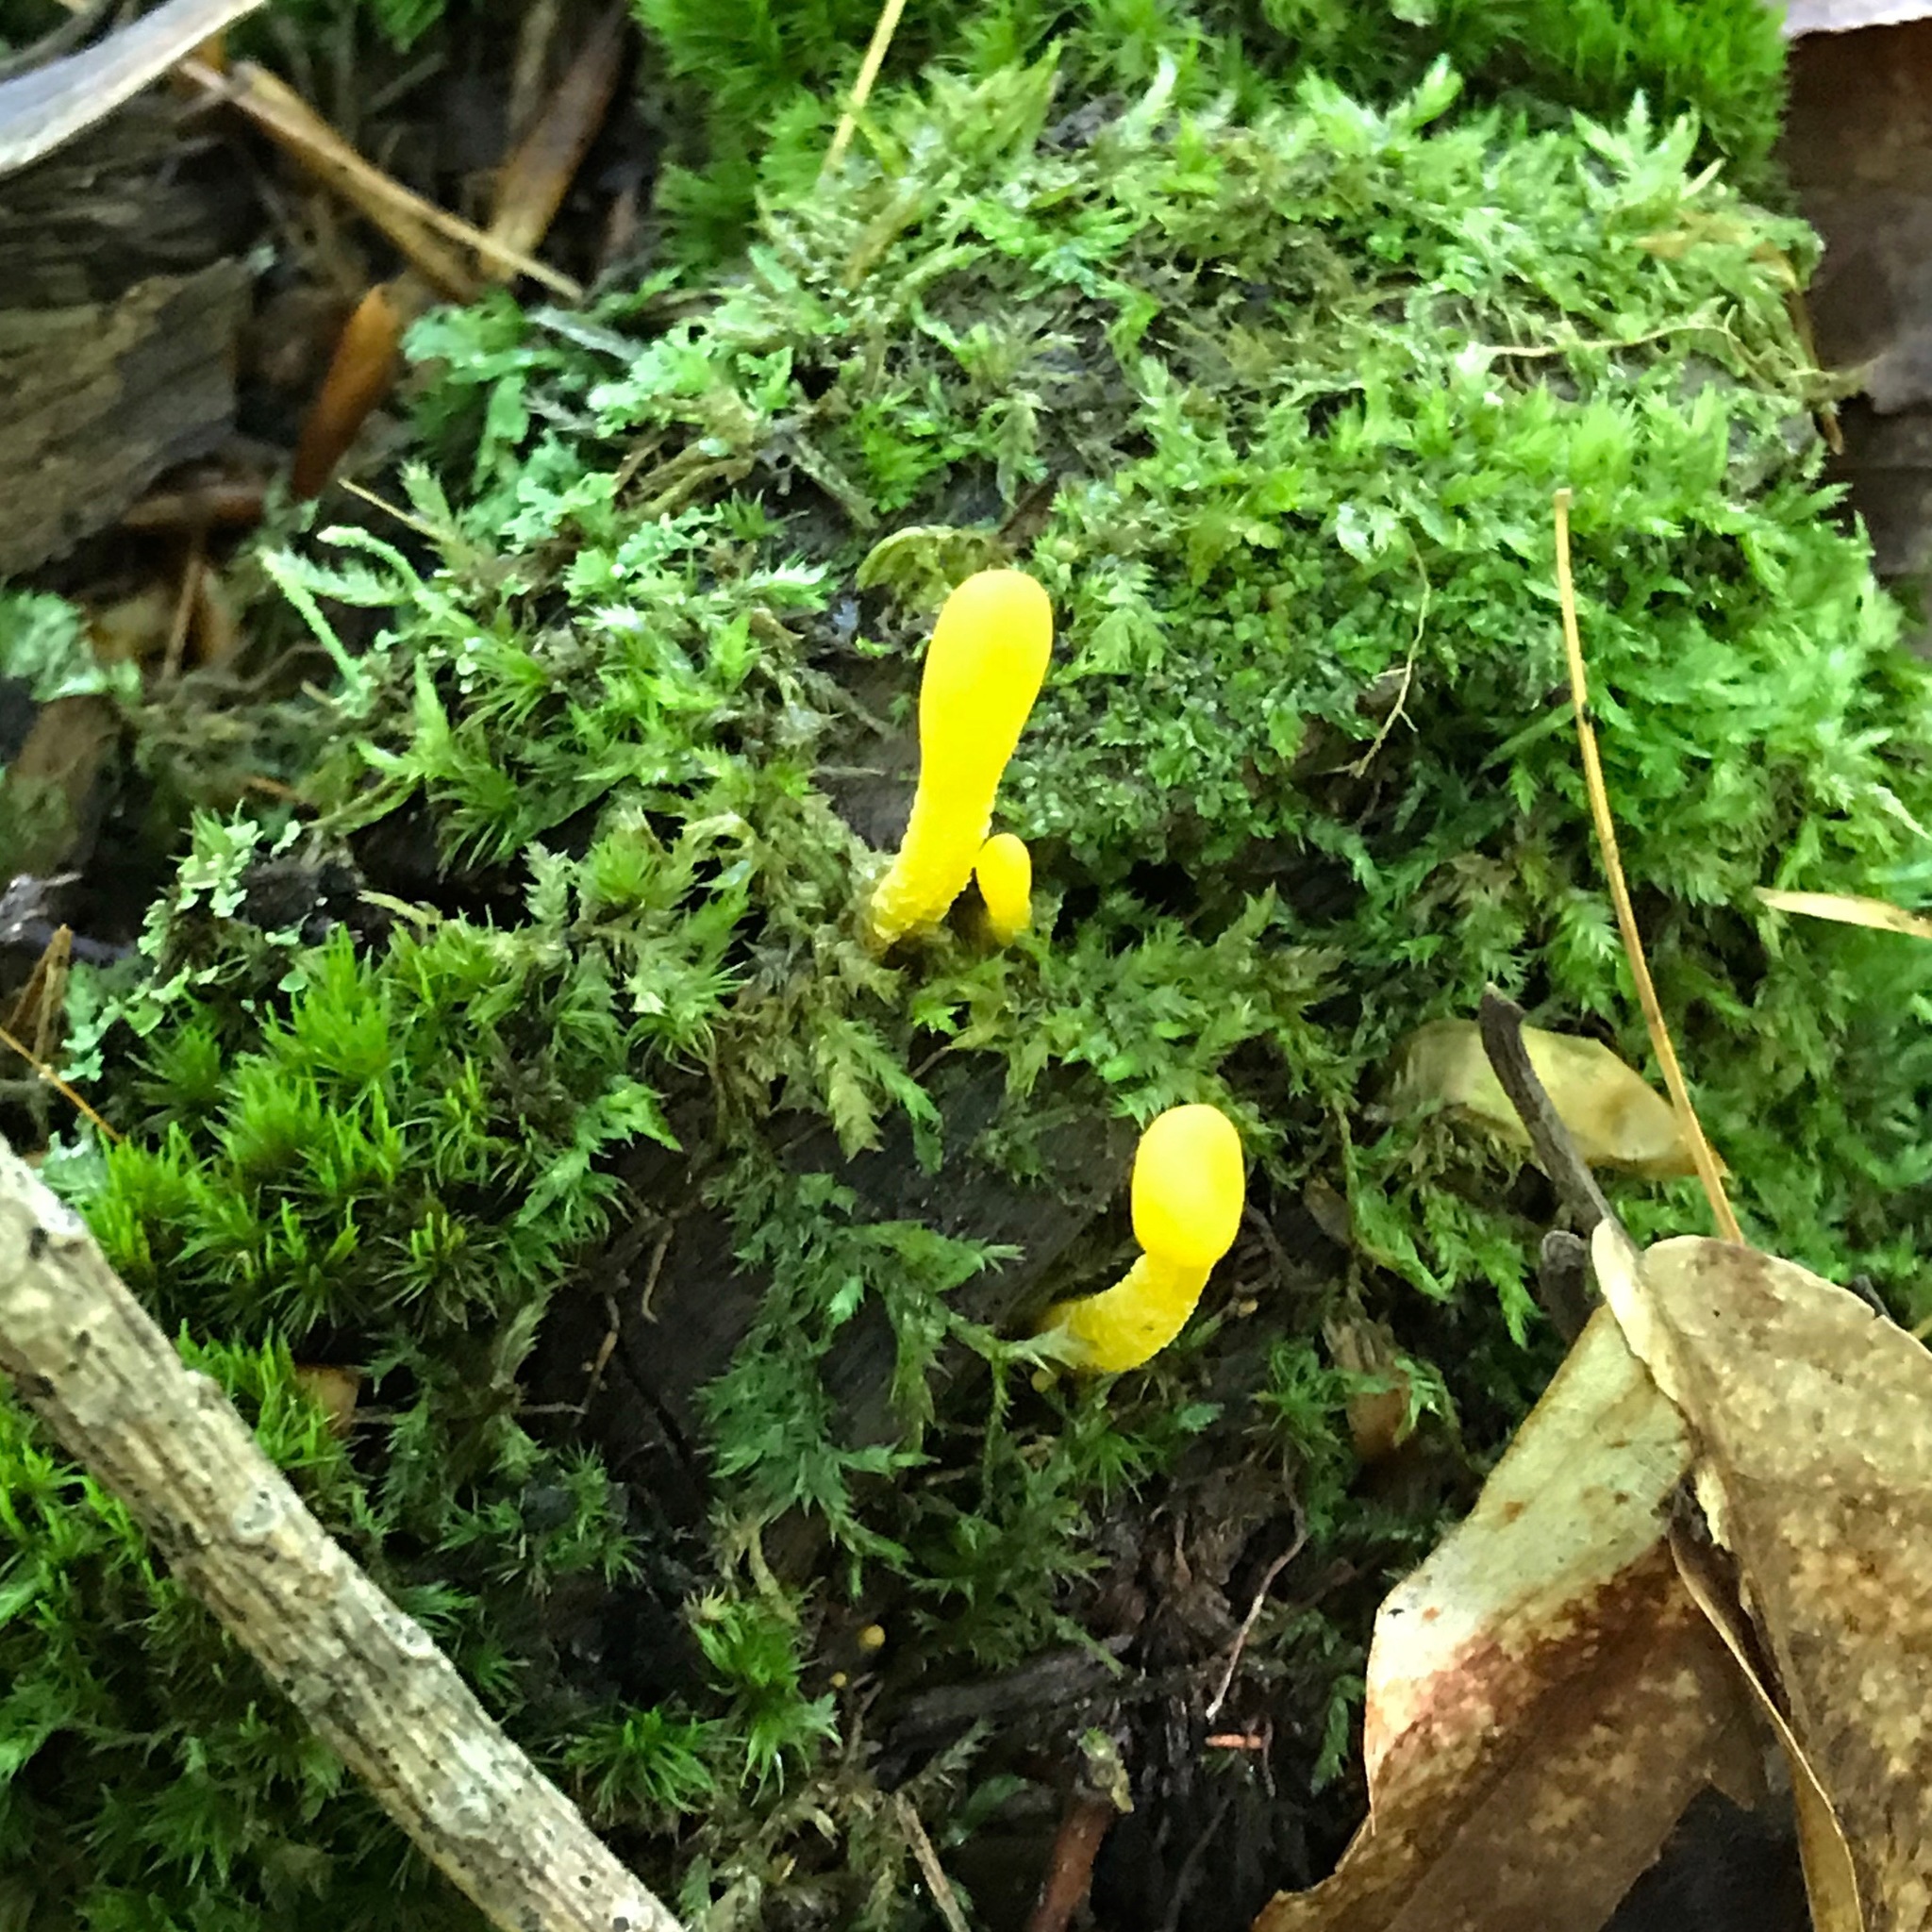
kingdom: Fungi
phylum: Ascomycota
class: Leotiomycetes
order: Leotiales
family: Leotiaceae
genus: Microglossum
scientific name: Microglossum rufum
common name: Orange earthtongue
